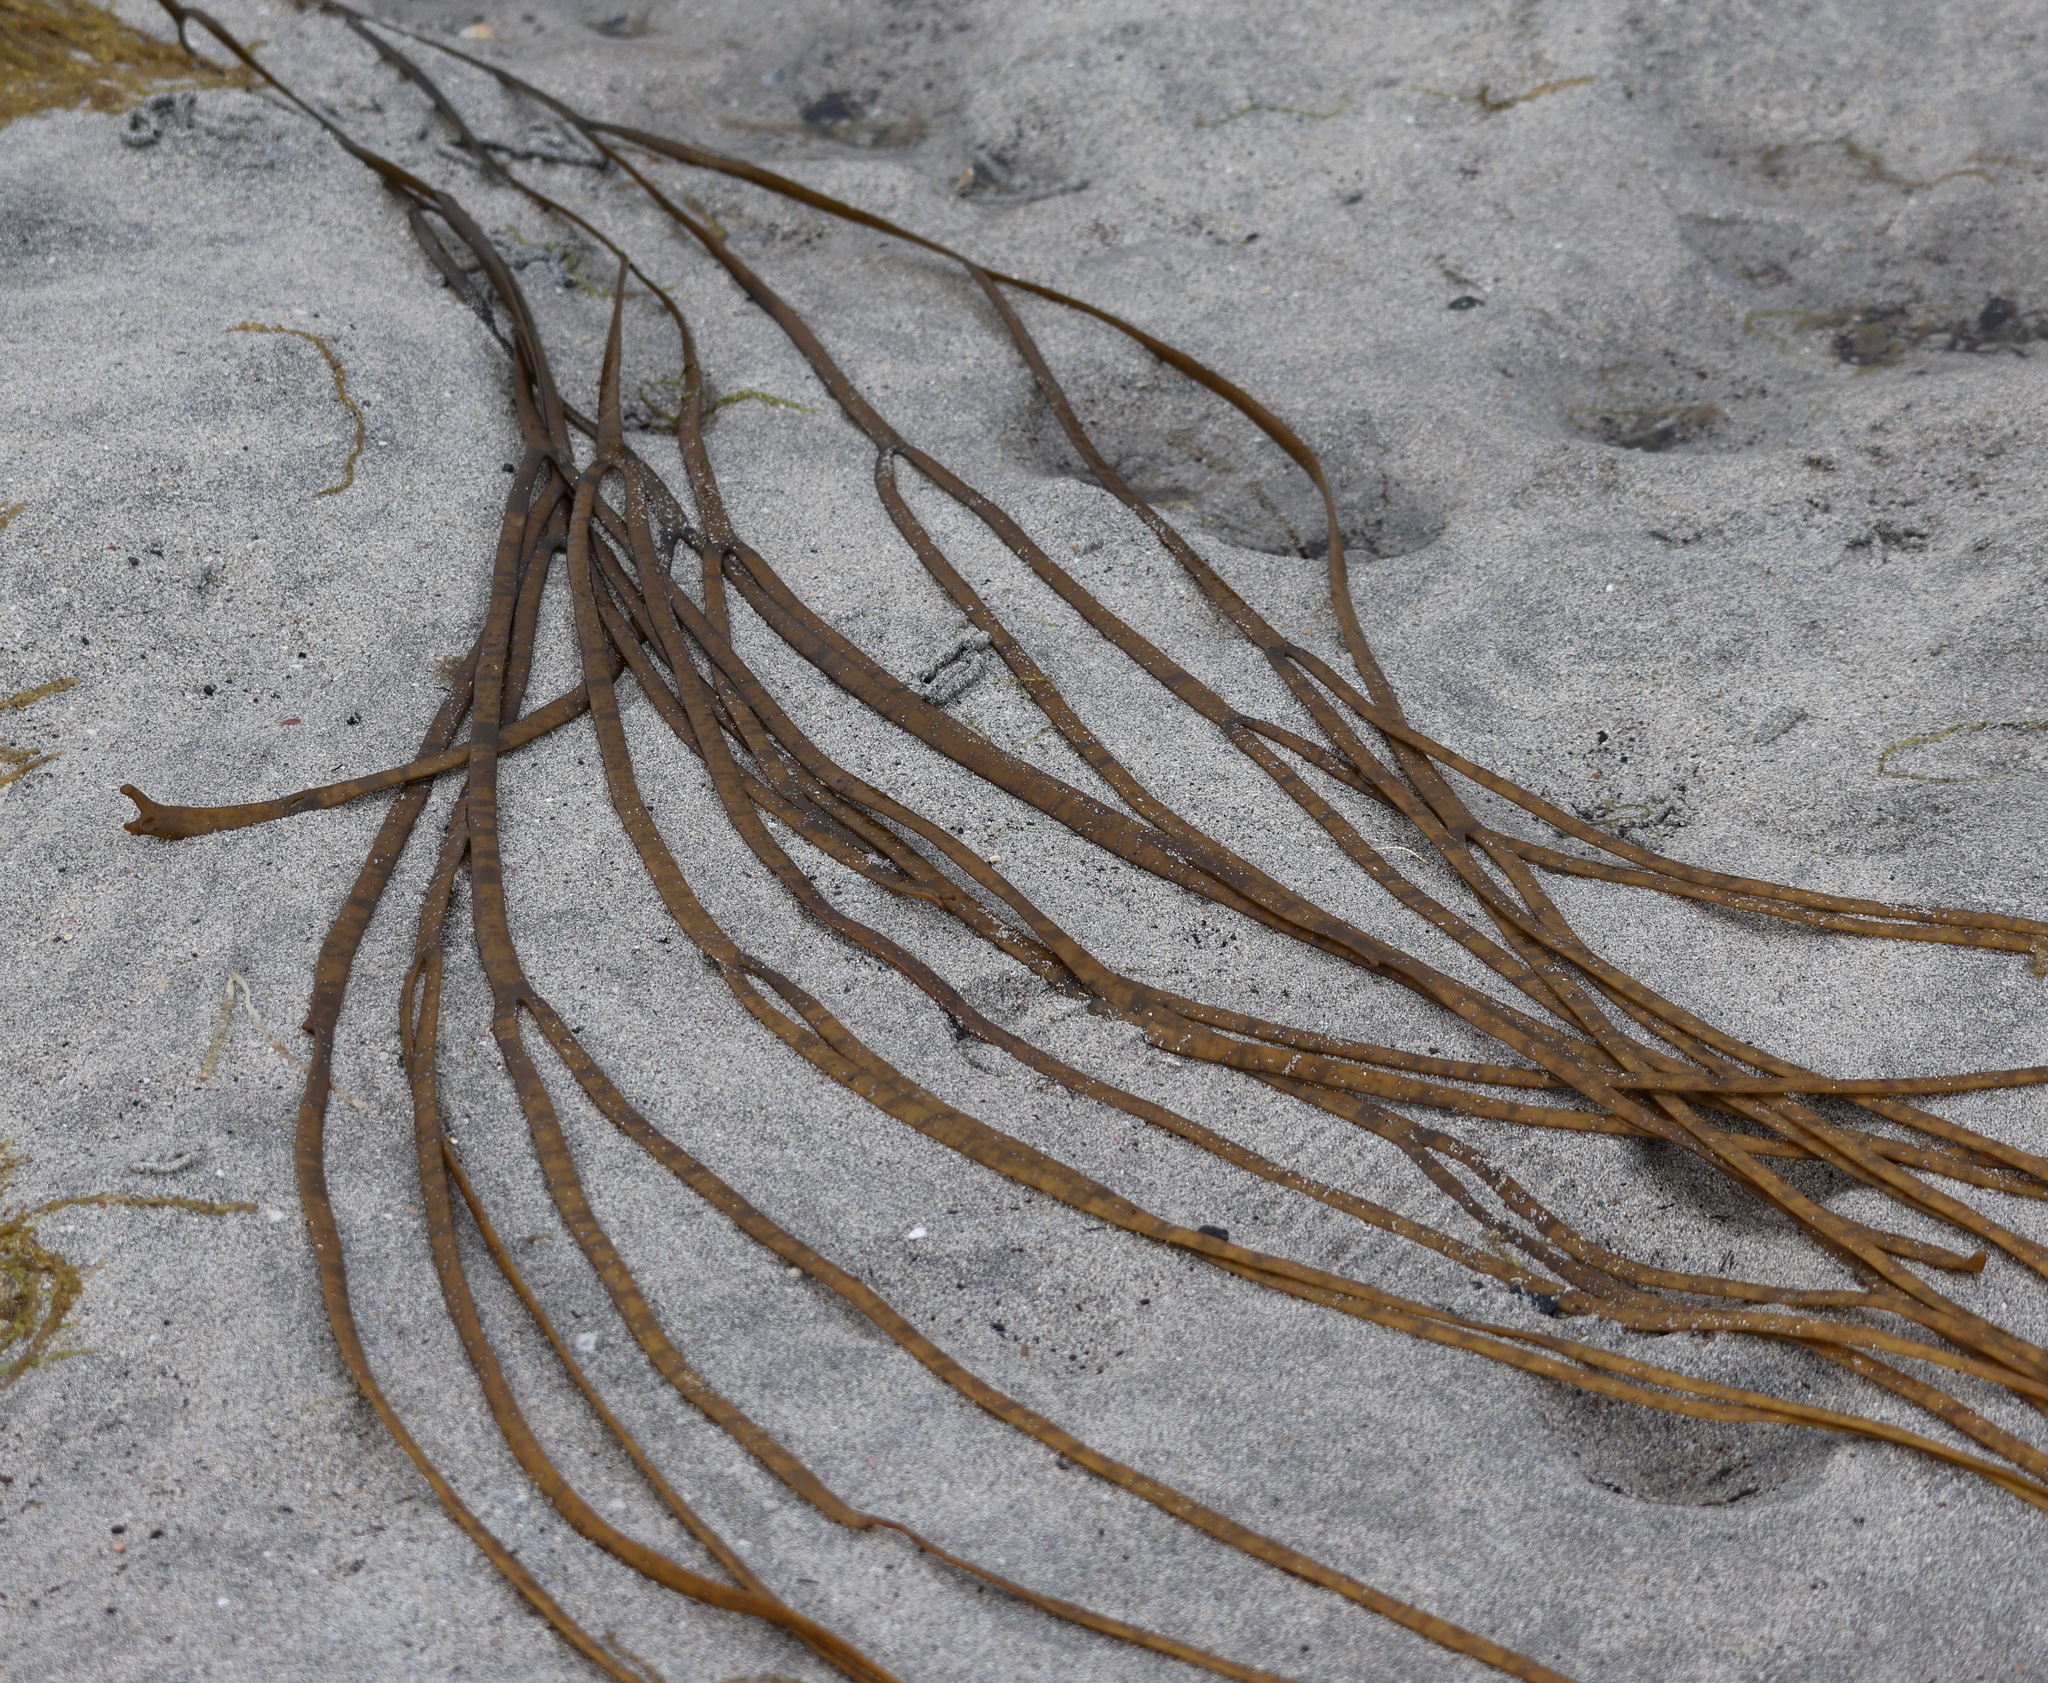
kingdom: Chromista
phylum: Ochrophyta
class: Phaeophyceae
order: Fucales
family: Himanthaliaceae
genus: Himanthalia
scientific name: Himanthalia elongata
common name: Sea-thong
